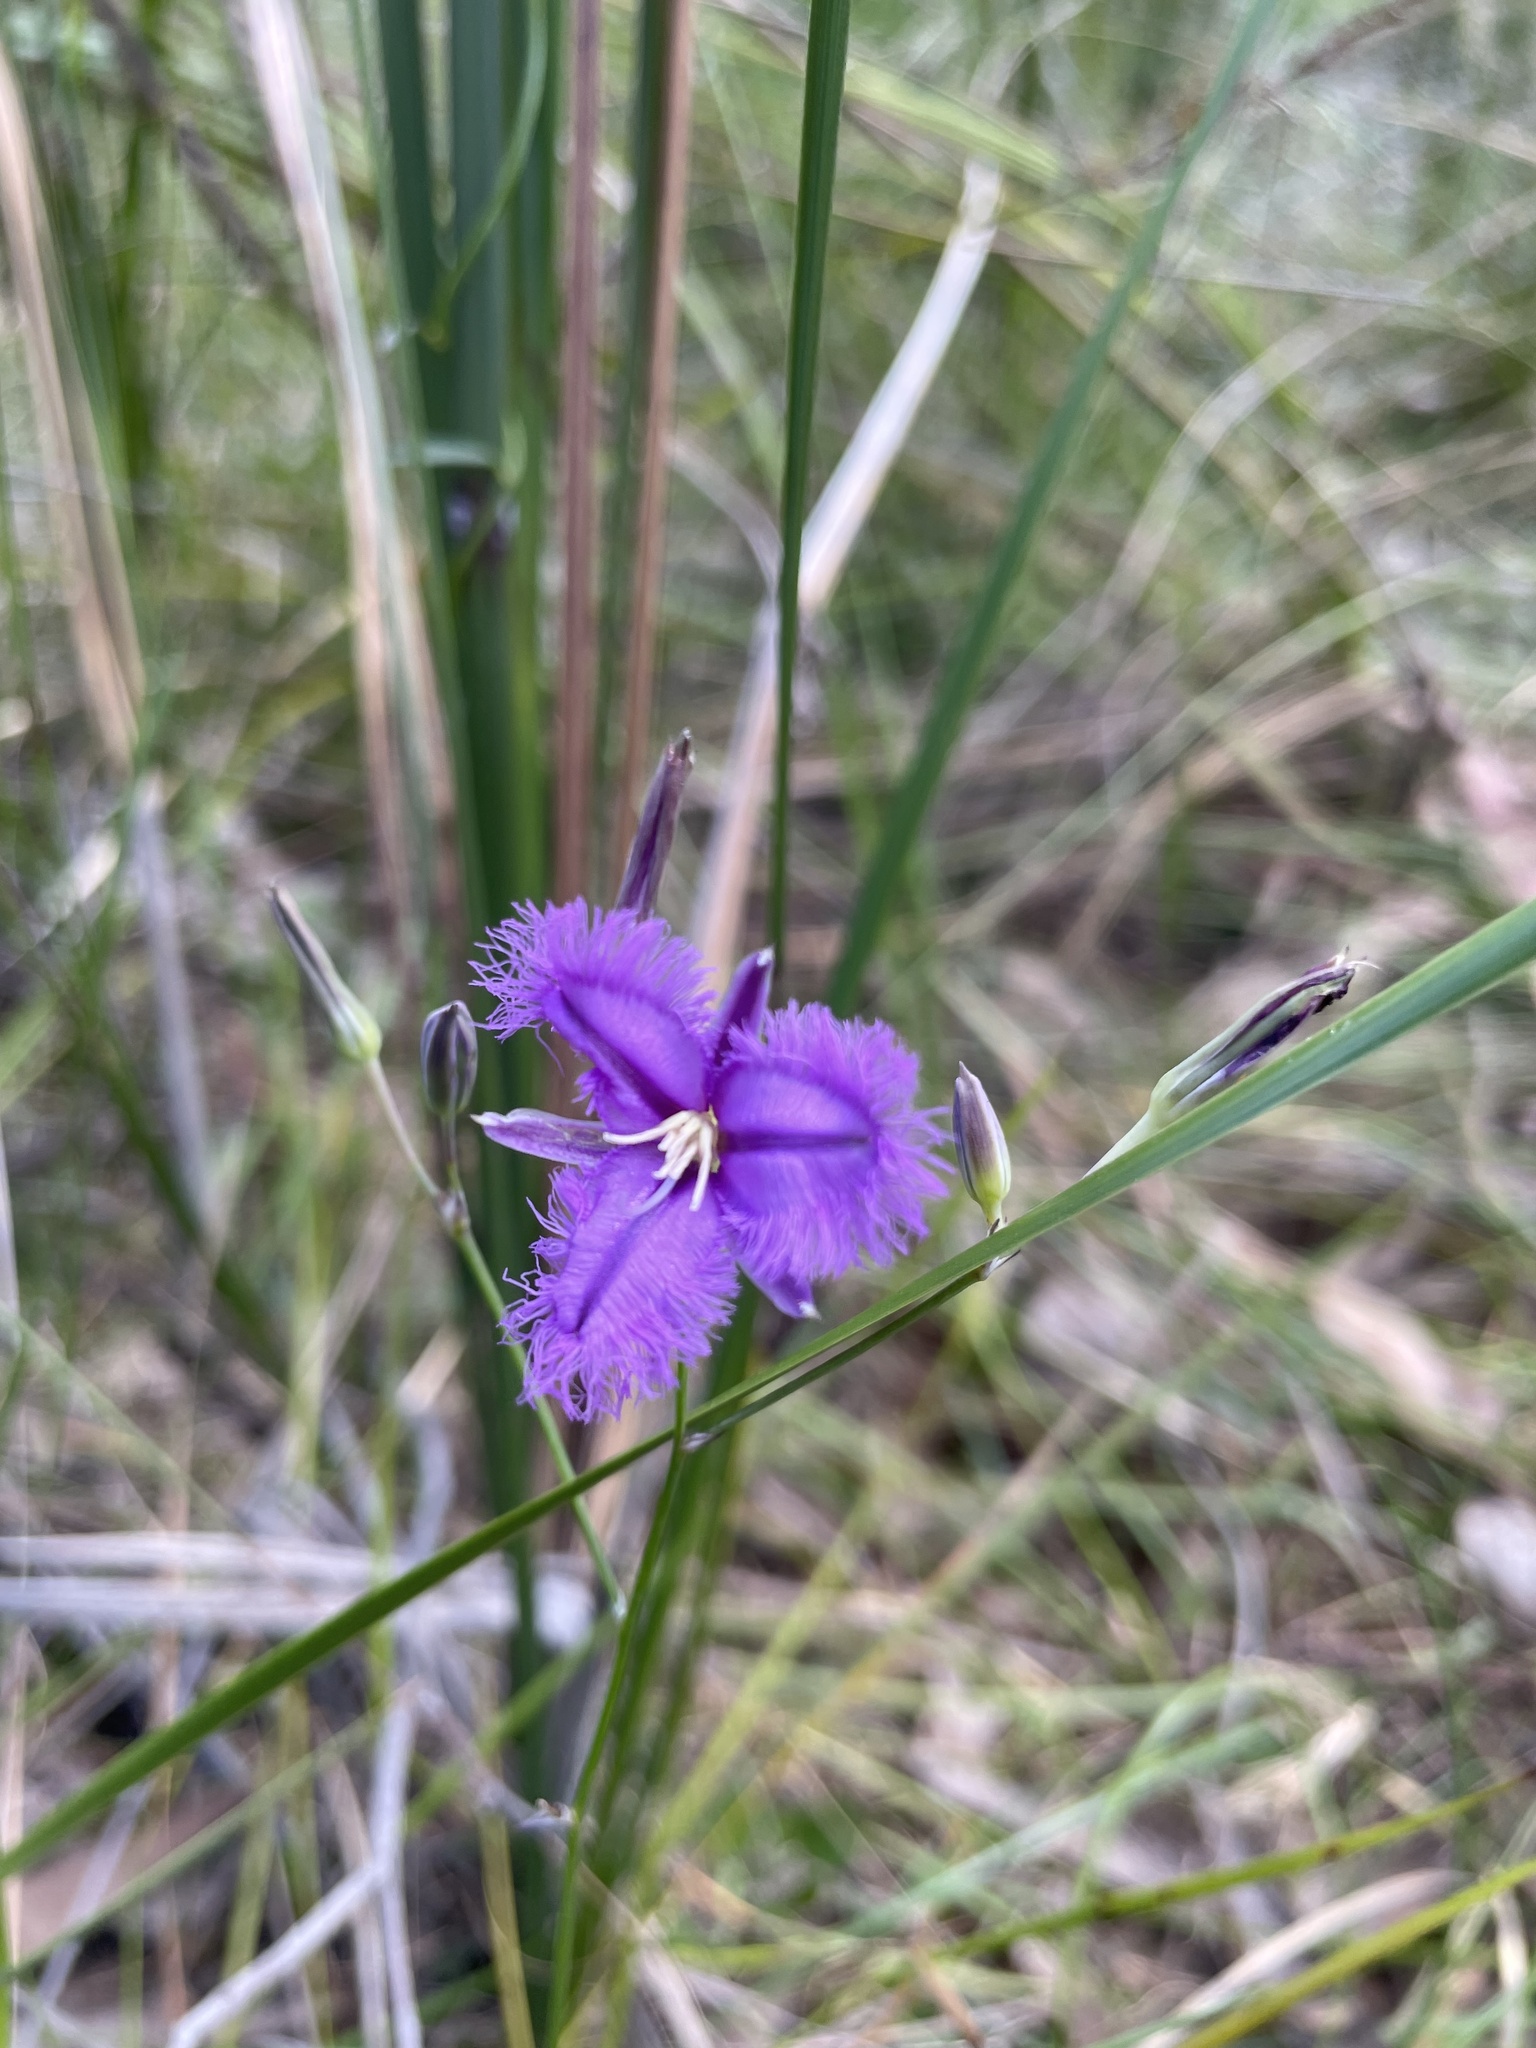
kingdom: Plantae
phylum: Tracheophyta
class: Liliopsida
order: Asparagales
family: Asparagaceae
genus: Thysanotus
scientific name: Thysanotus tuberosus
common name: Common fringed-lily
